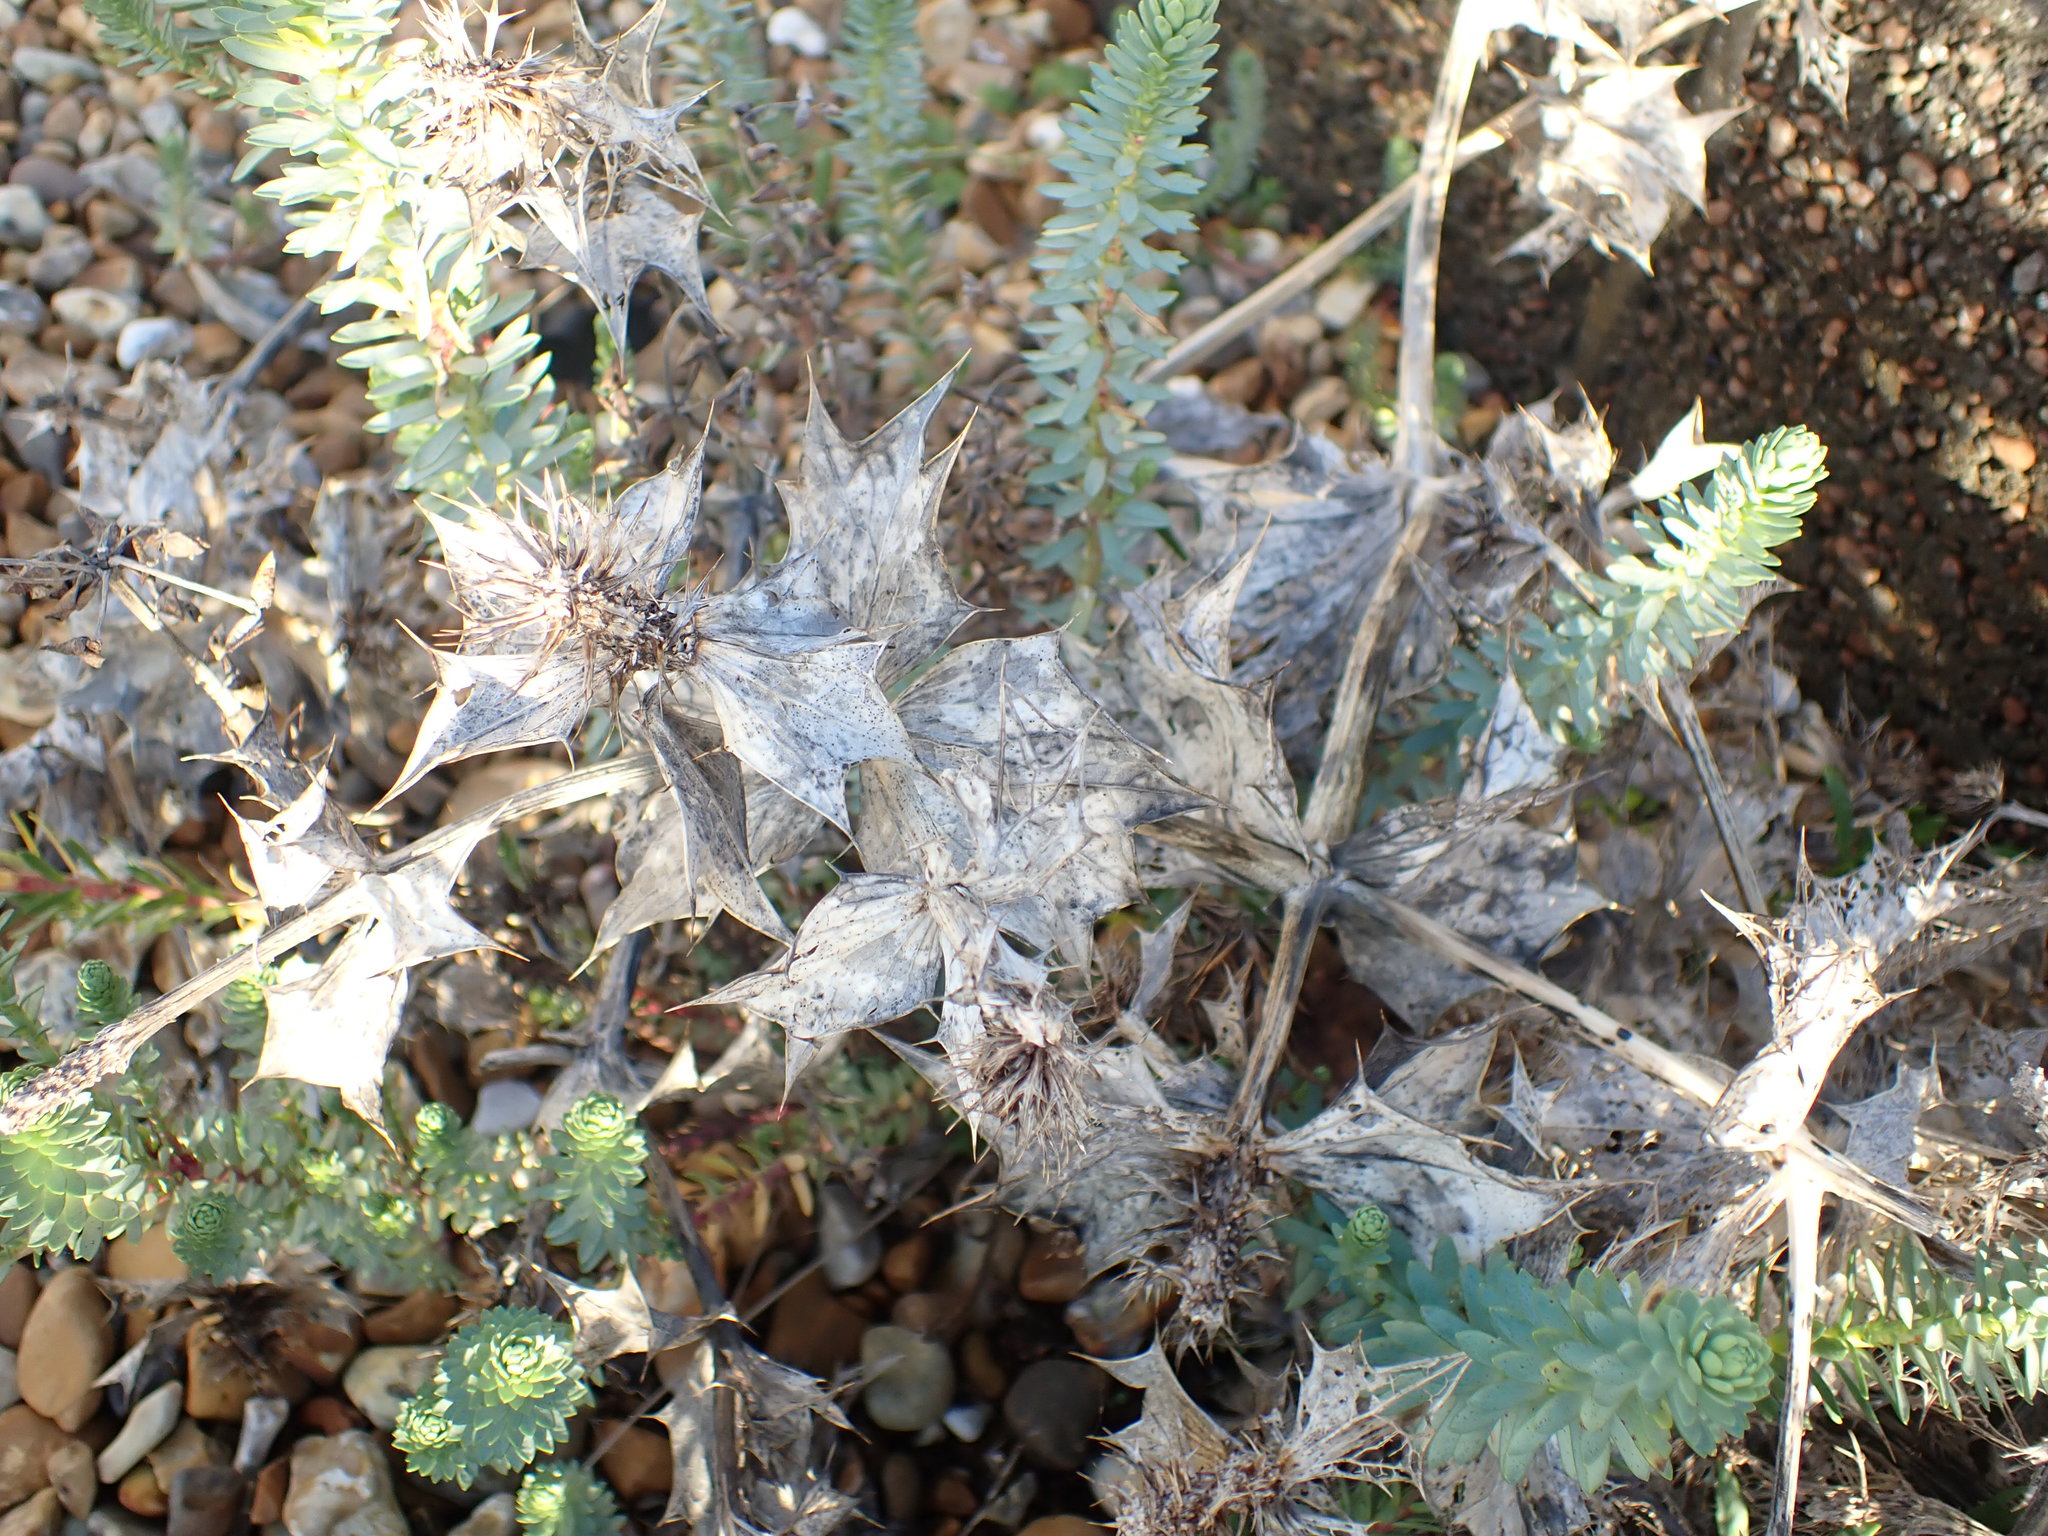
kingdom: Plantae
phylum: Tracheophyta
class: Magnoliopsida
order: Apiales
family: Apiaceae
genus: Eryngium
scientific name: Eryngium maritimum
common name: Sea-holly
